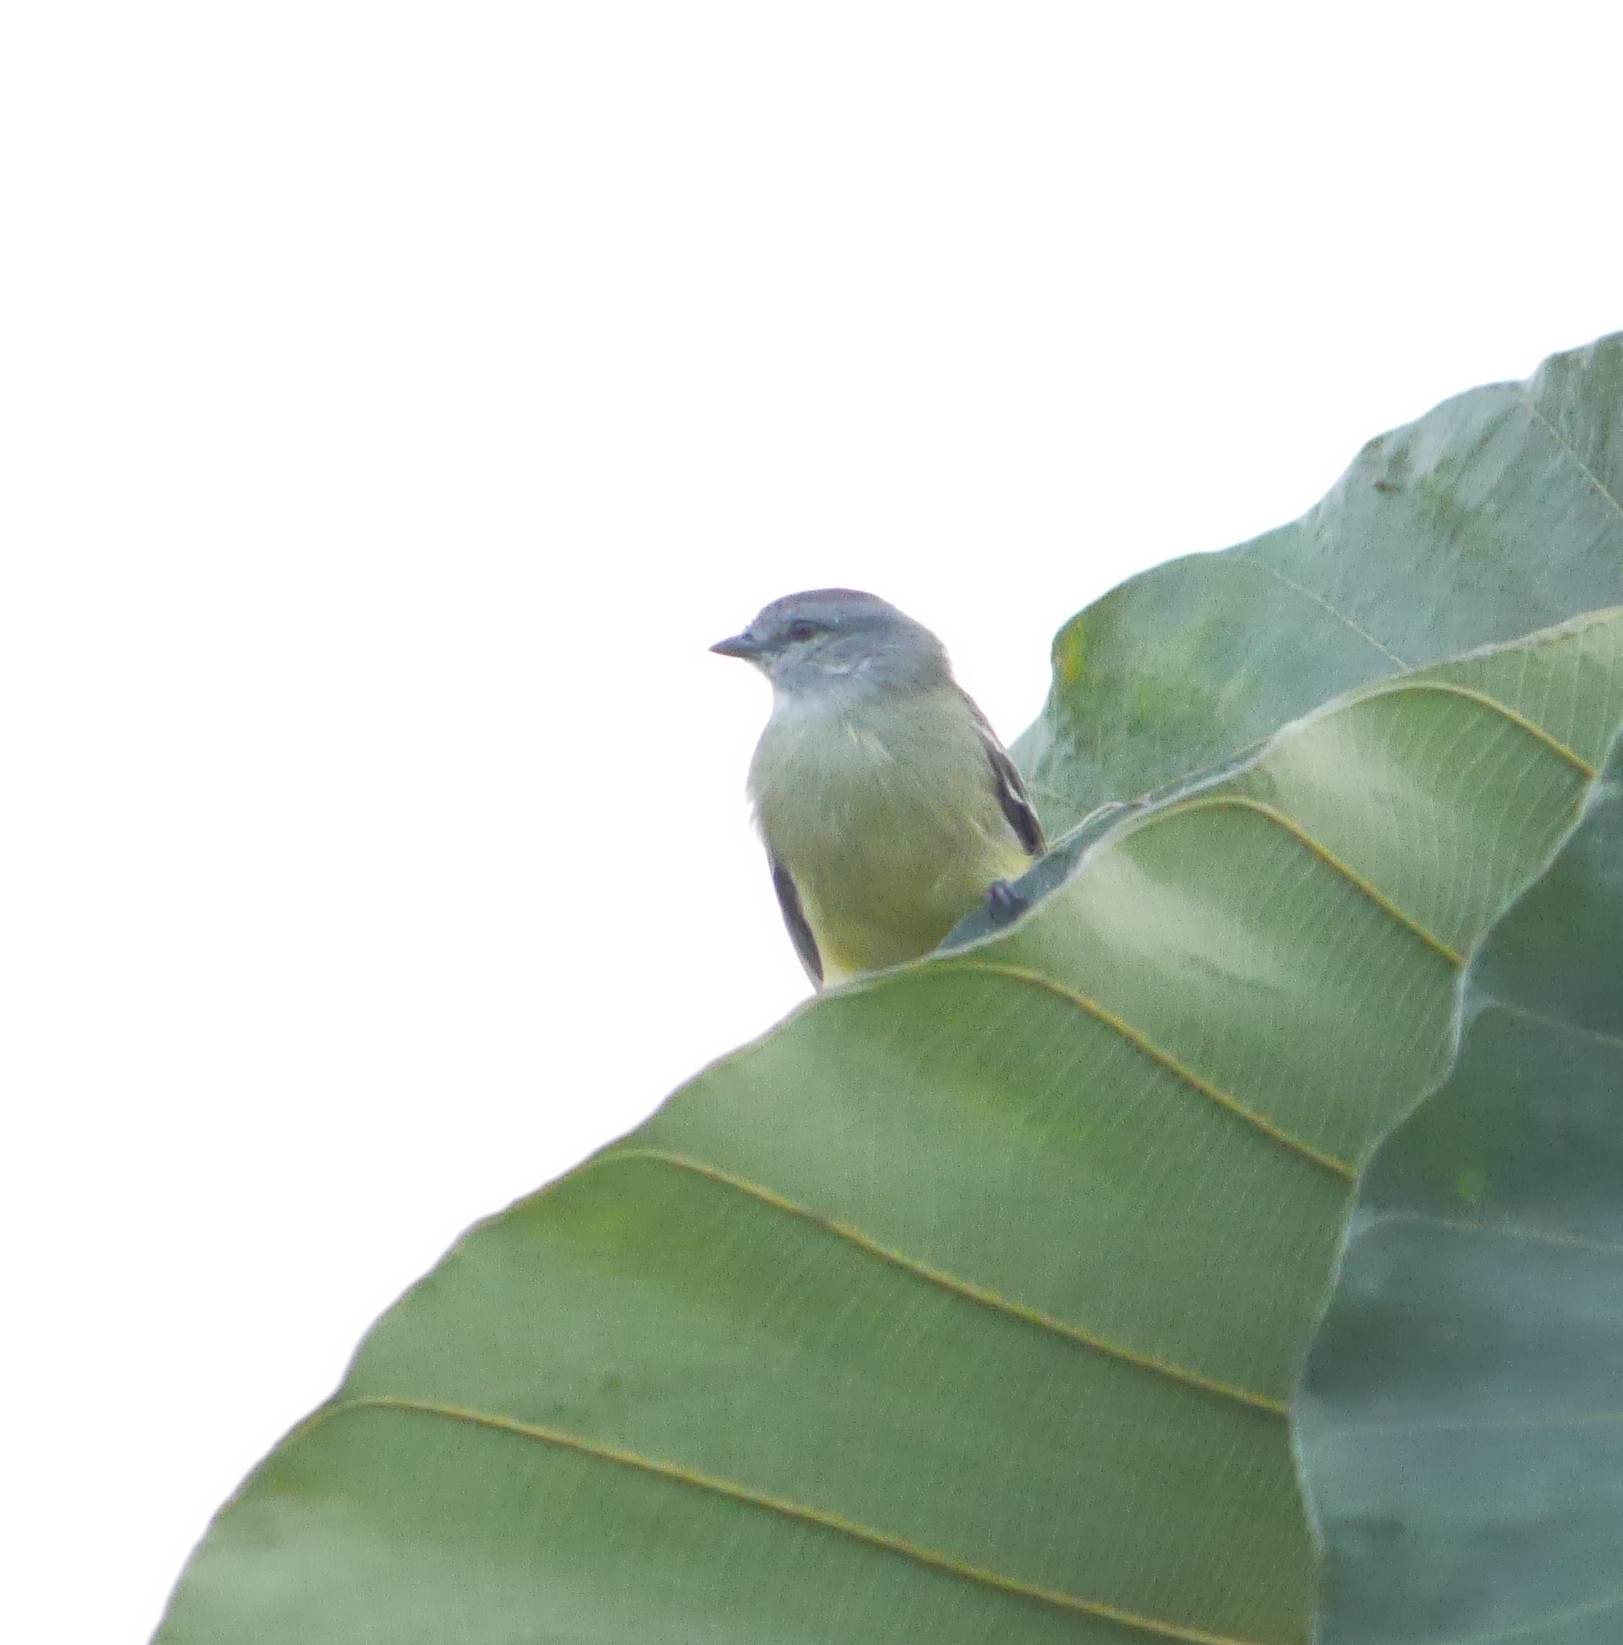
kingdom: Animalia
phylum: Chordata
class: Aves
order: Passeriformes
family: Tyrannidae
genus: Tyrannulus
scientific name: Tyrannulus elatus
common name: Yellow-crowned tyrannulet
